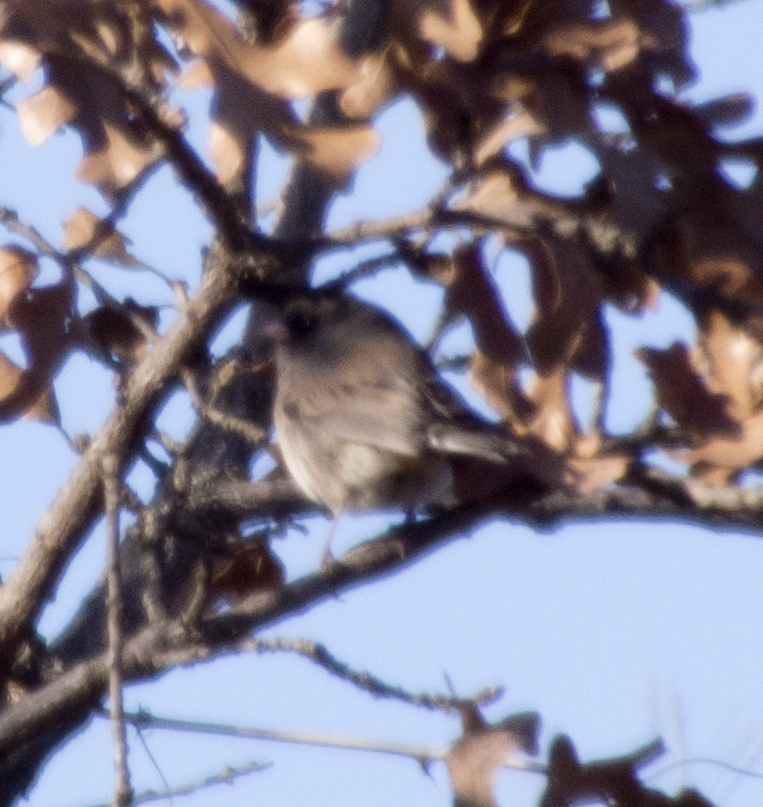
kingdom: Animalia
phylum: Chordata
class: Aves
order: Passeriformes
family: Passerellidae
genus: Junco
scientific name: Junco hyemalis
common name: Dark-eyed junco
